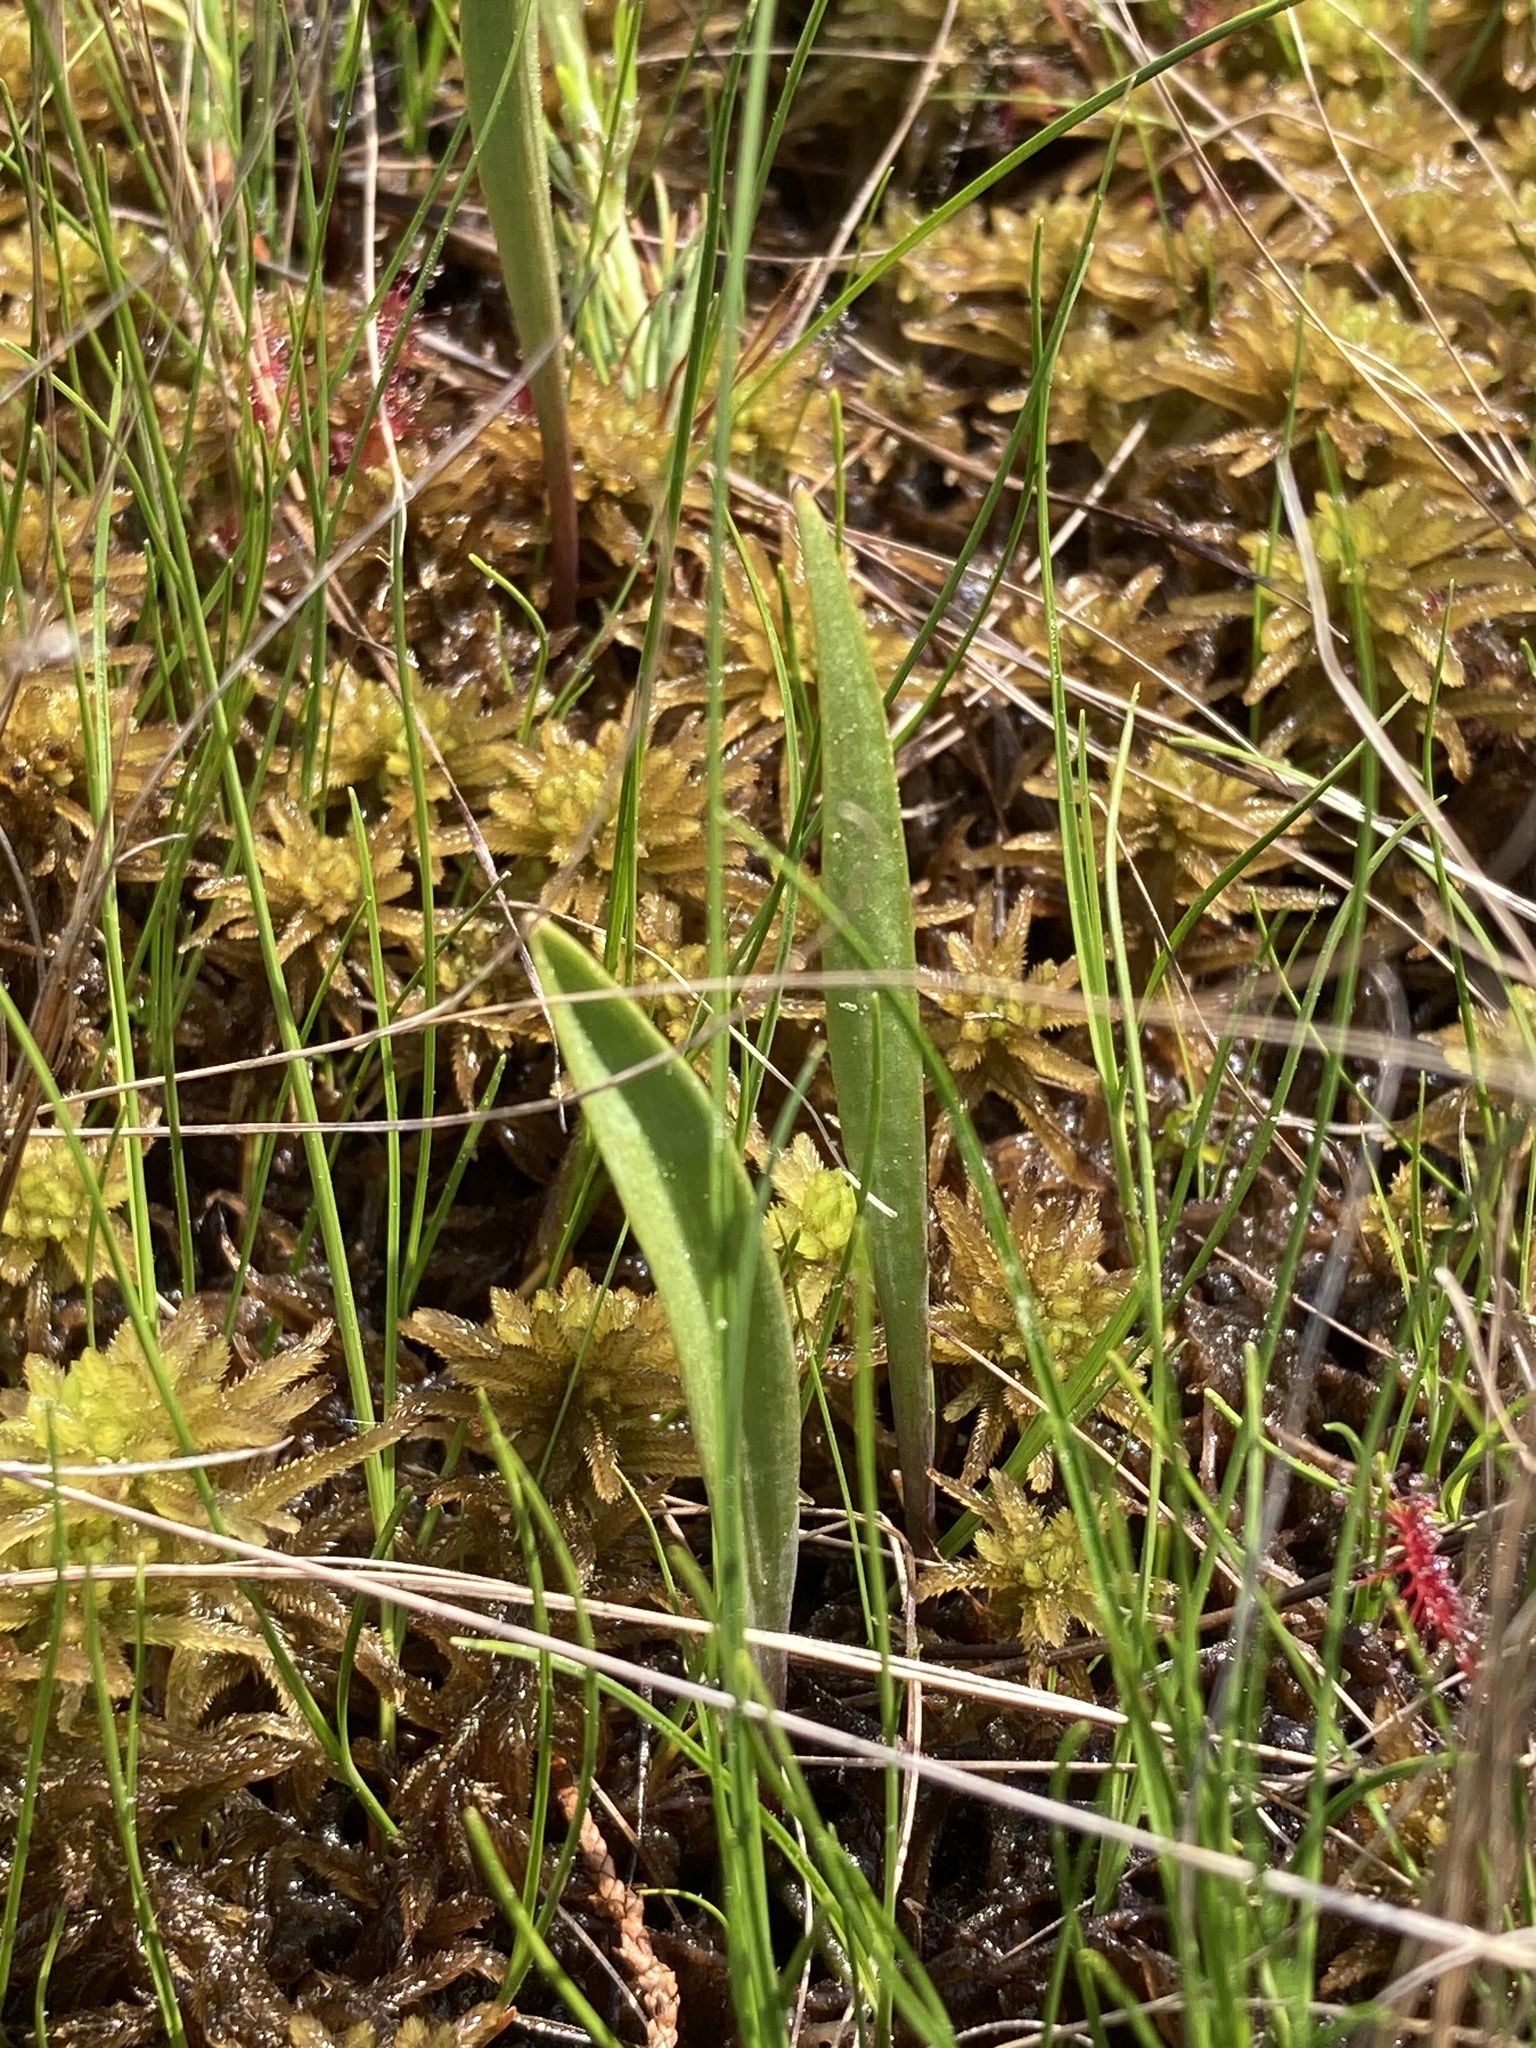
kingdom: Plantae
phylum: Tracheophyta
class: Liliopsida
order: Asparagales
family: Orchidaceae
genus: Pogonia
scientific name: Pogonia ophioglossoides
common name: Rose pogonia
